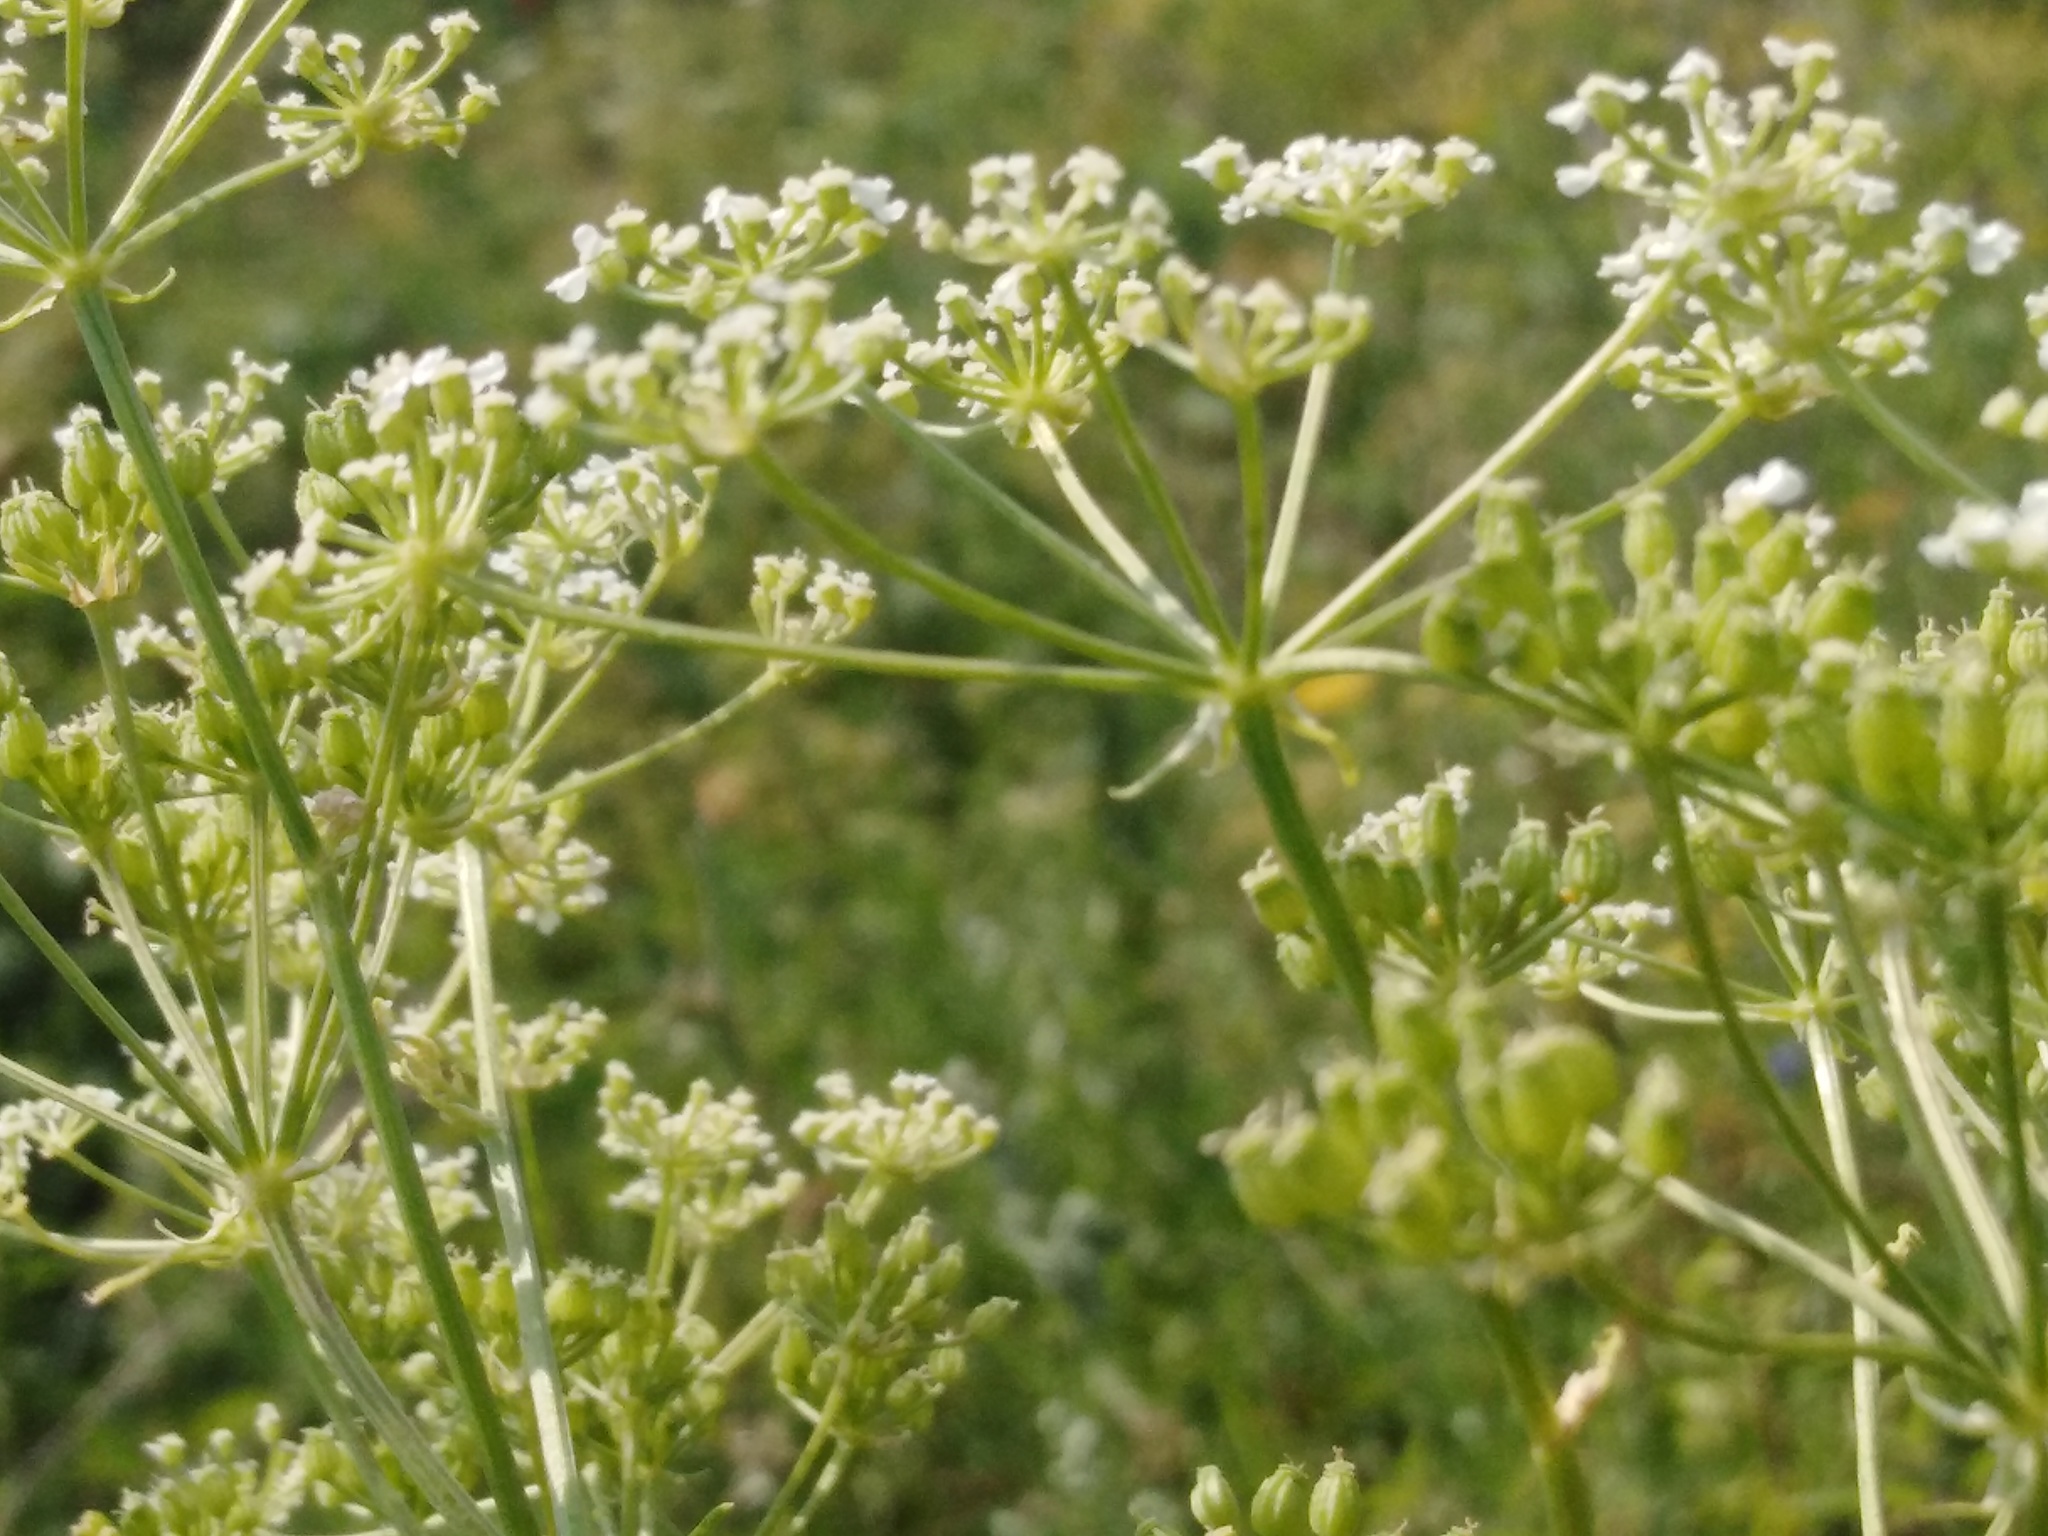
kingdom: Plantae
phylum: Tracheophyta
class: Magnoliopsida
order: Apiales
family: Apiaceae
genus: Conium
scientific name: Conium maculatum
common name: Hemlock
